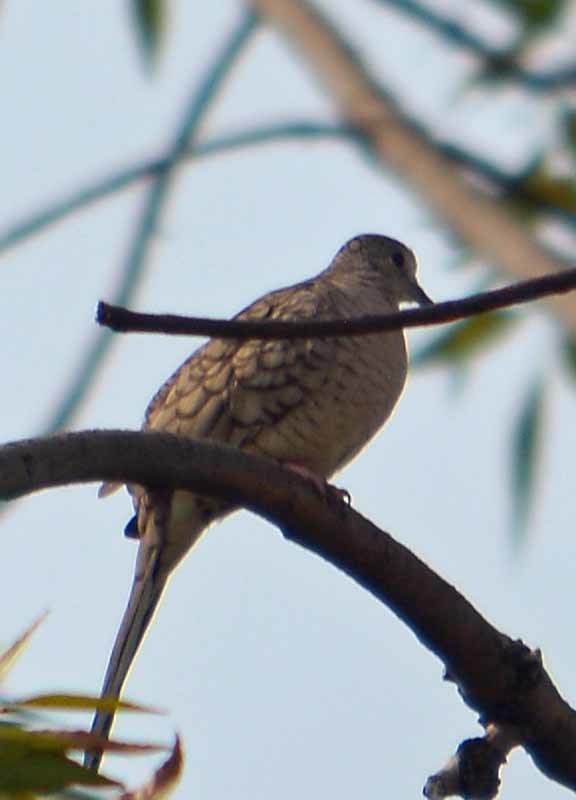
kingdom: Animalia
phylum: Chordata
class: Aves
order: Columbiformes
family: Columbidae
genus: Columbina
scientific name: Columbina inca
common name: Inca dove
